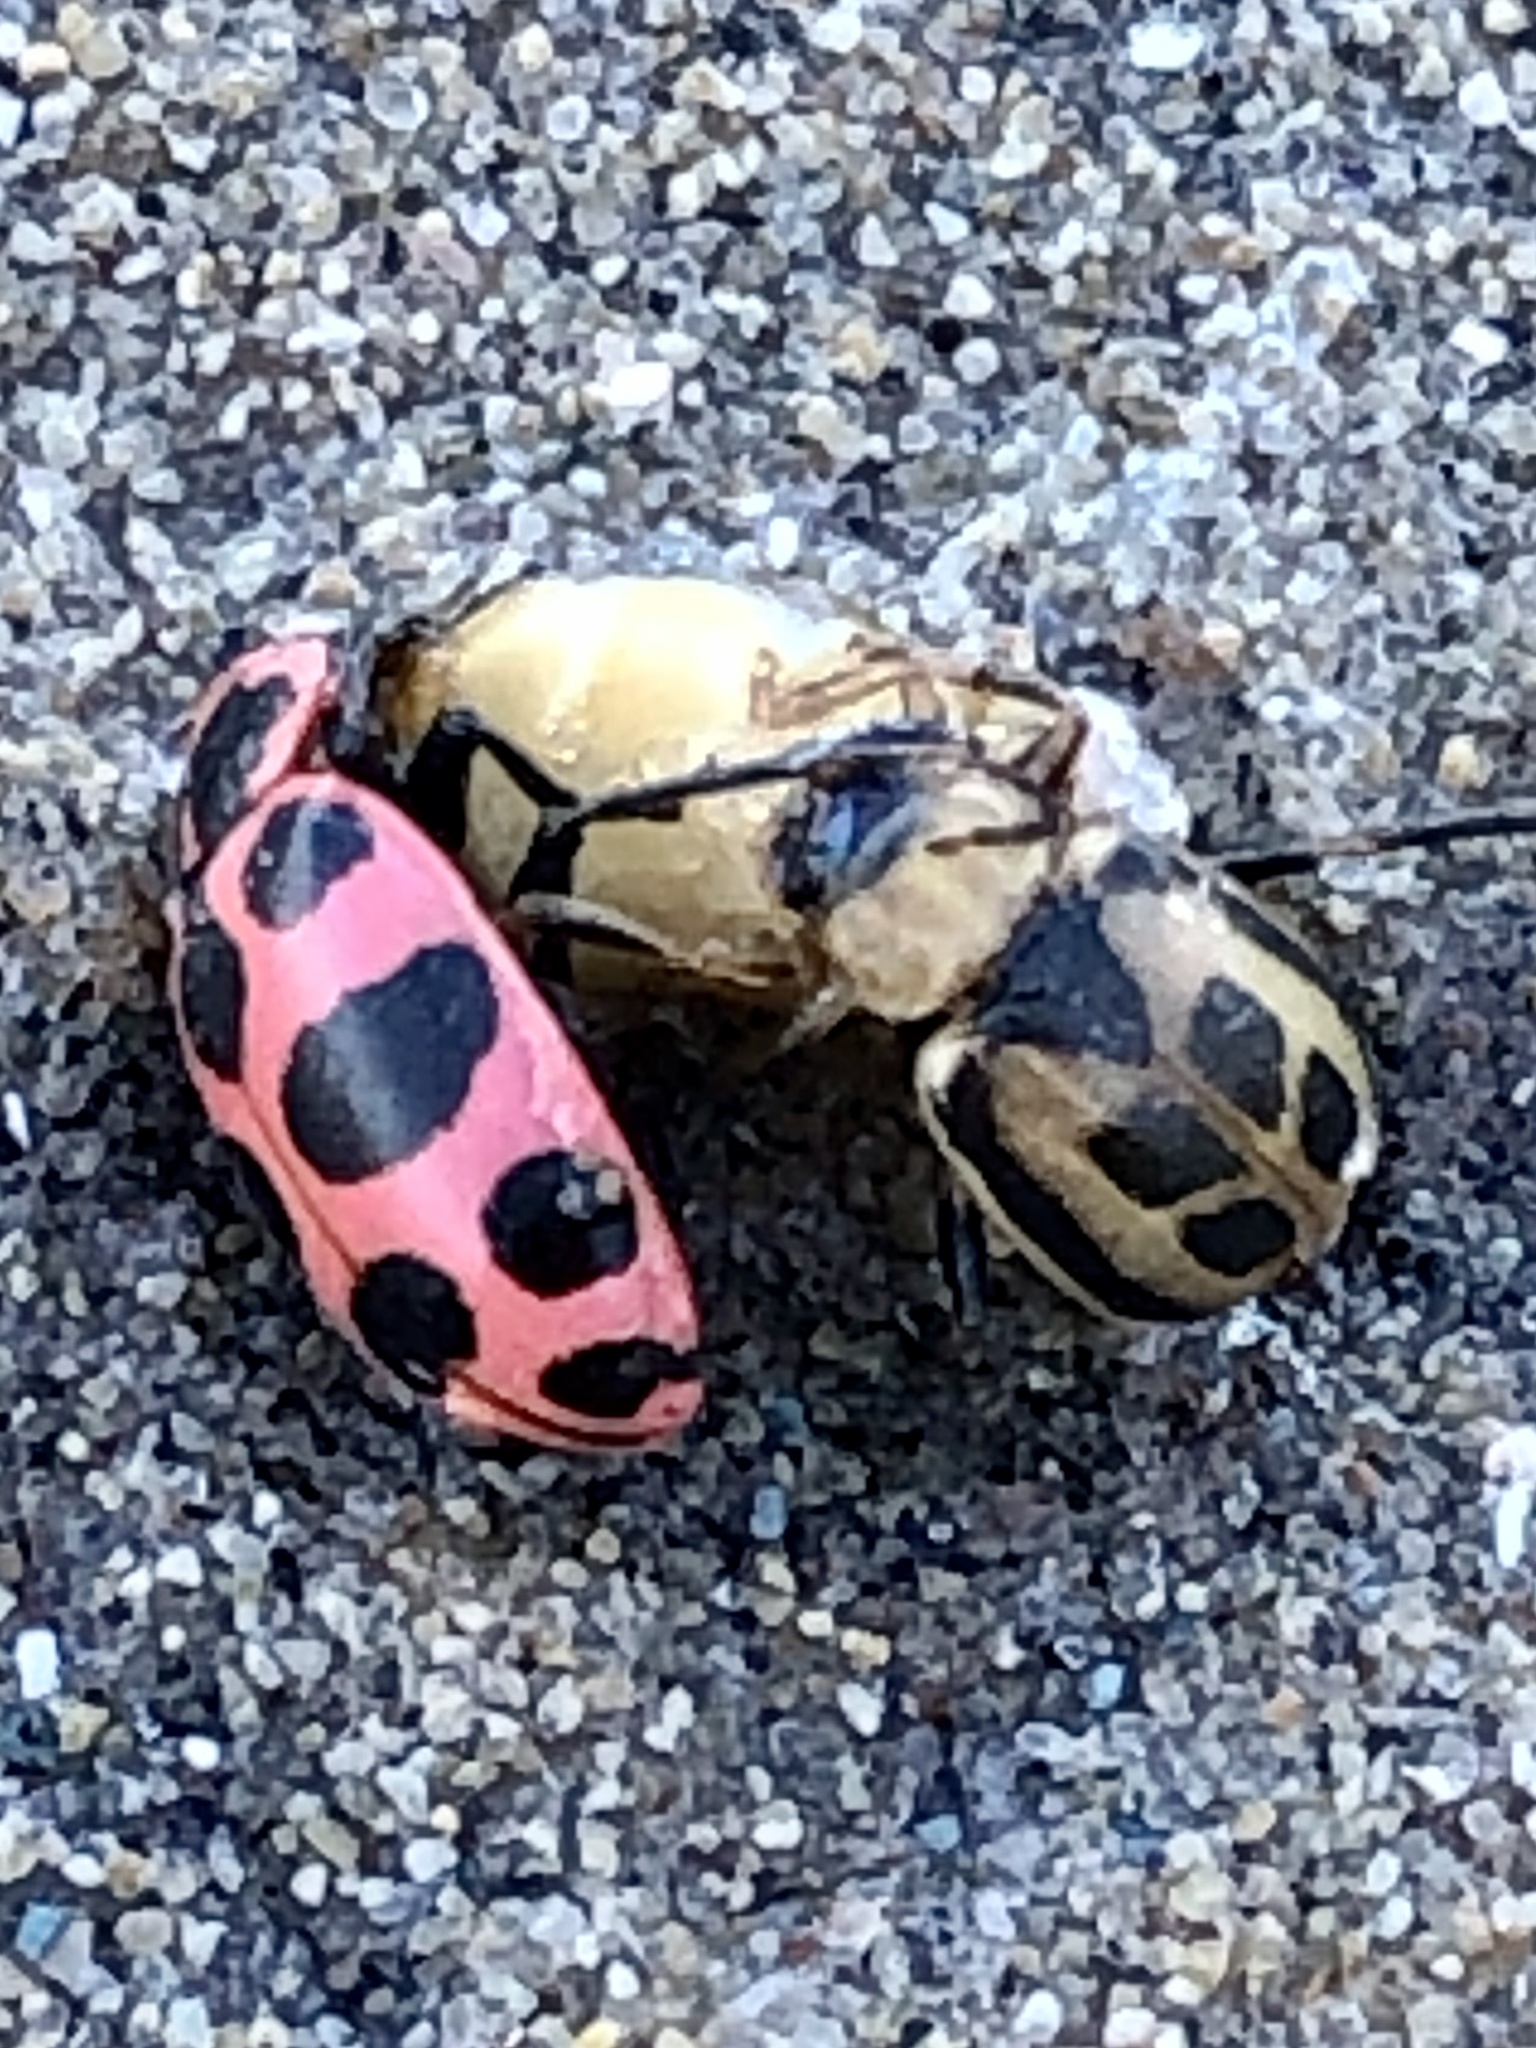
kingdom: Animalia
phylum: Arthropoda
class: Insecta
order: Coleoptera
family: Chrysomelidae
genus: Cerotoma
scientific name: Cerotoma trifurcata
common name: Bean leaf beetle
